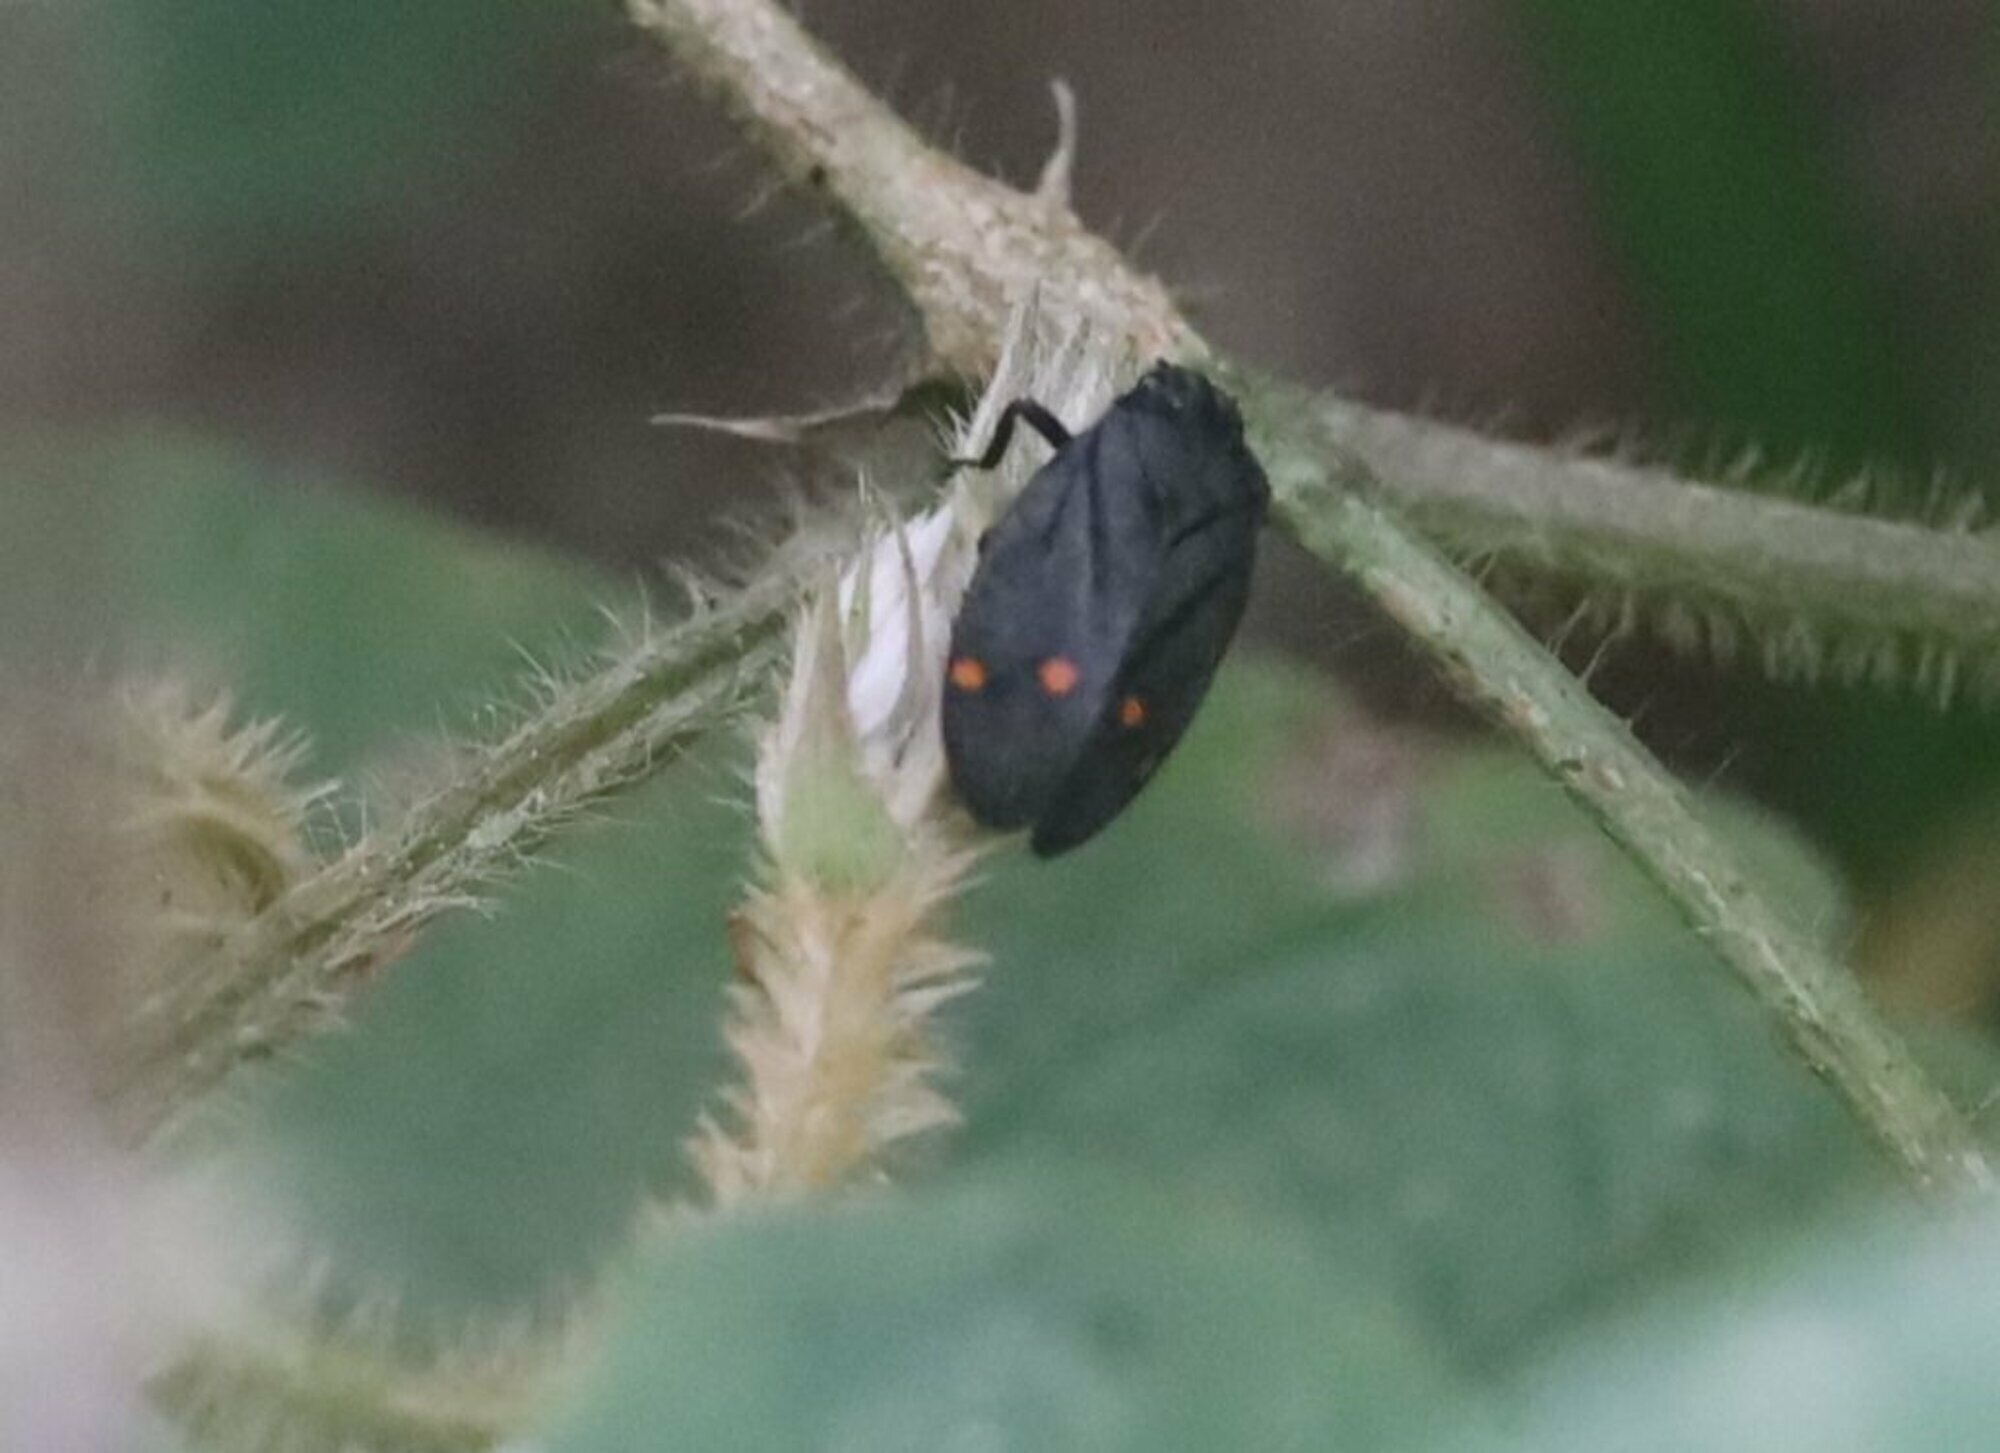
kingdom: Animalia
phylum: Arthropoda
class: Insecta
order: Hemiptera
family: Cercopidae
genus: Deois
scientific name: Deois spinulata
